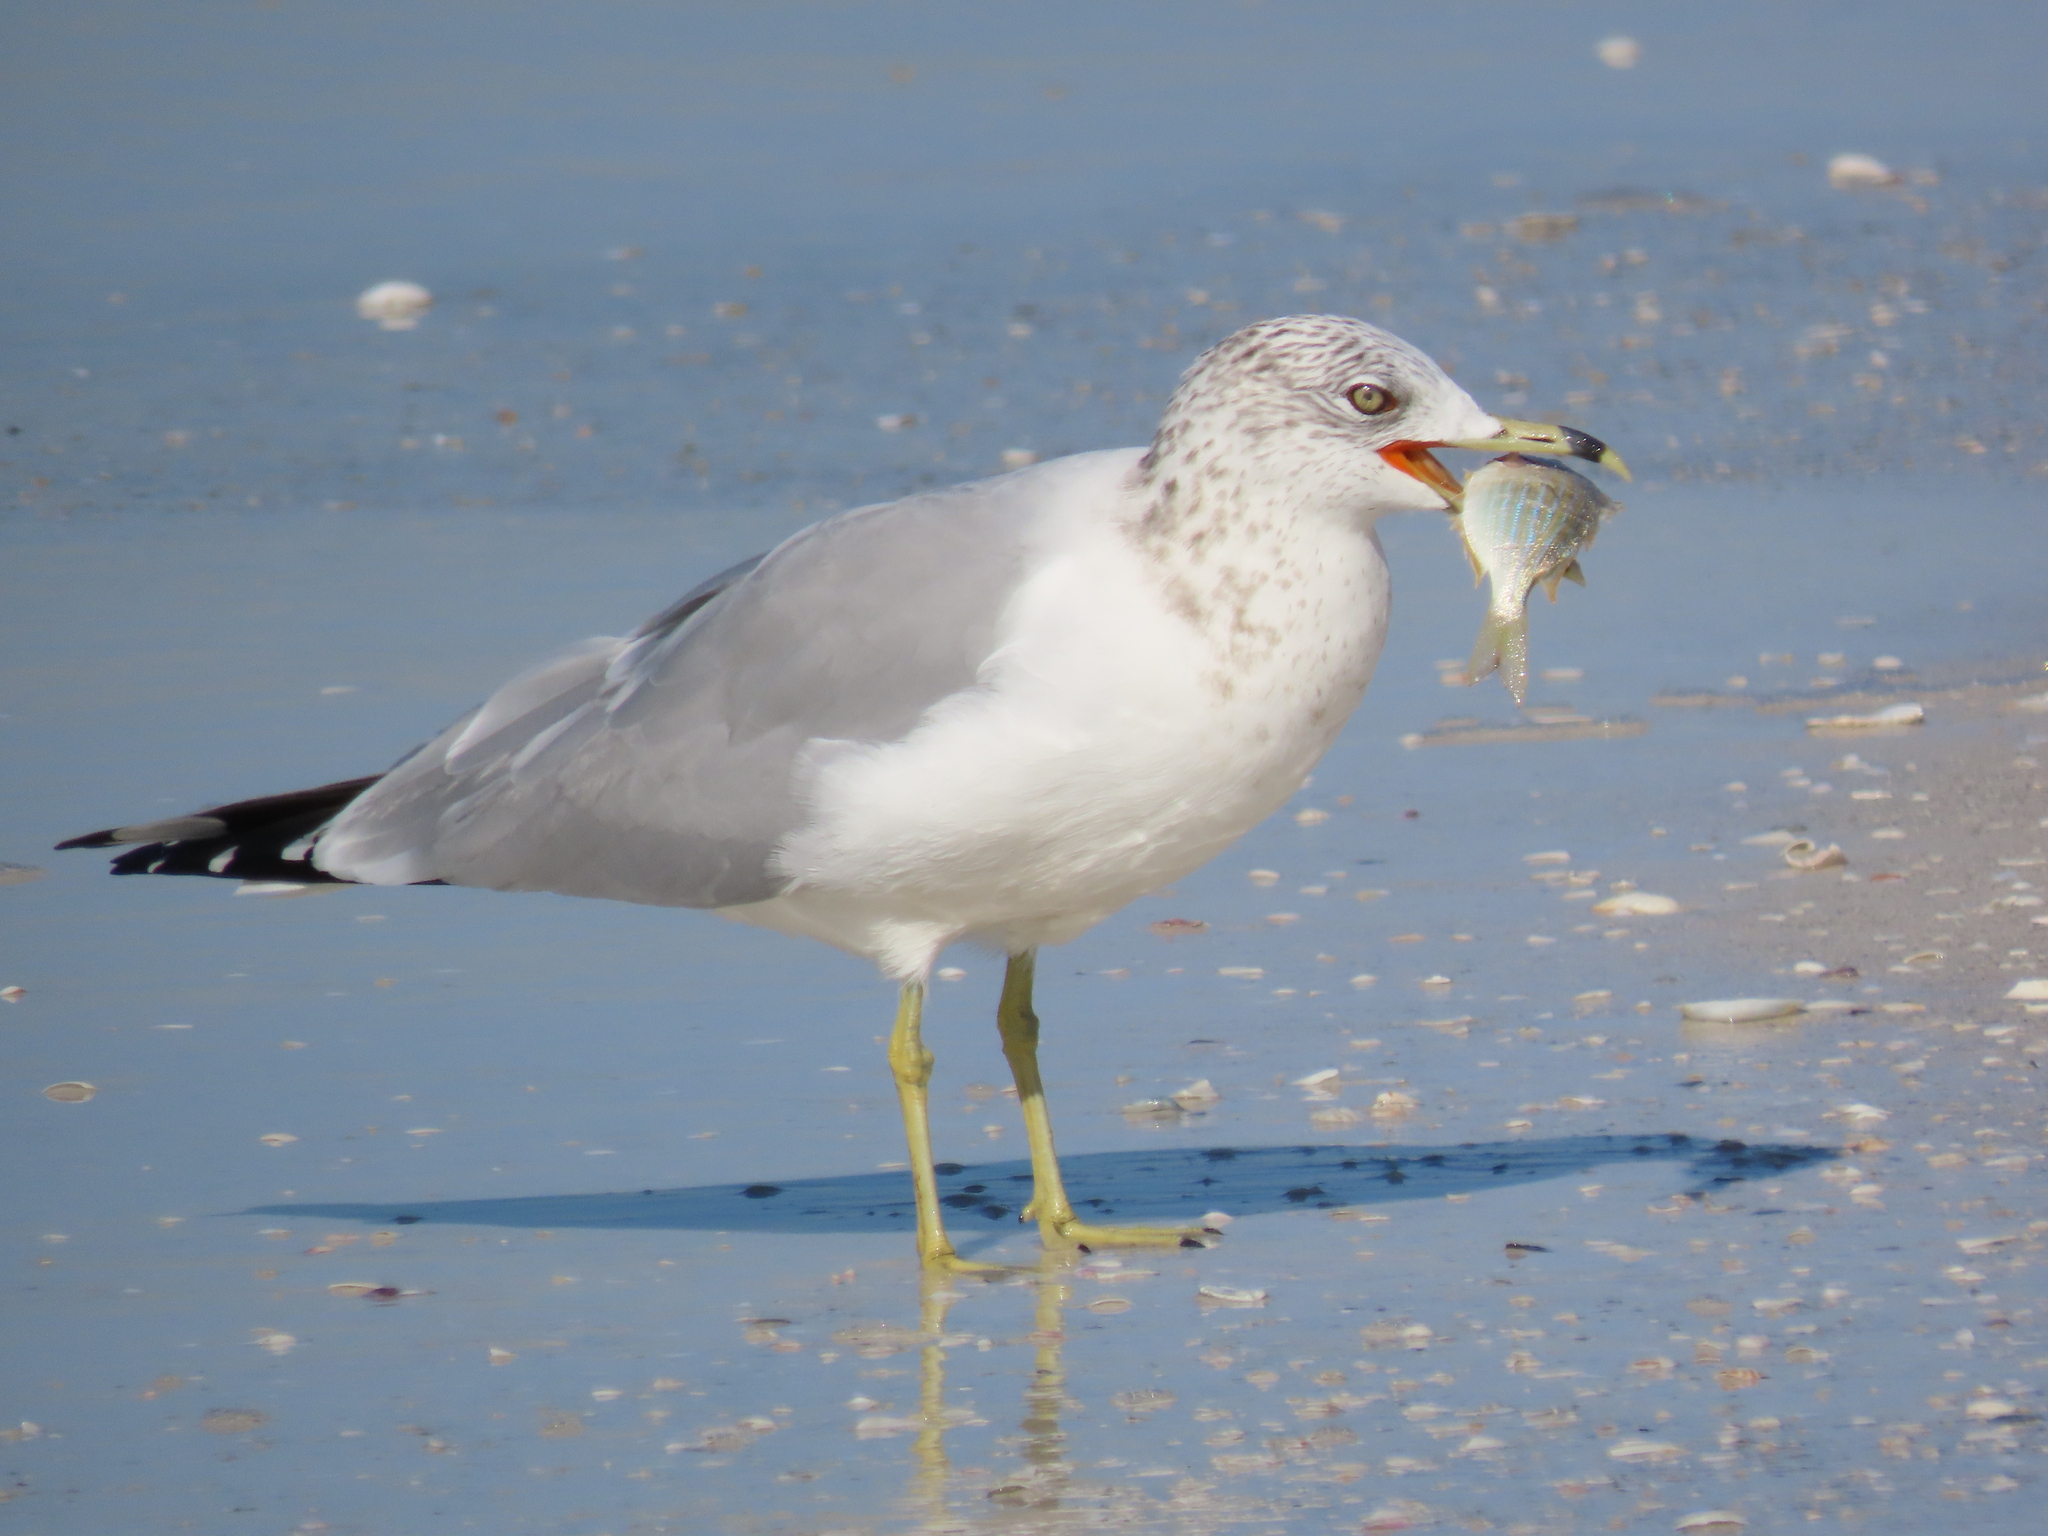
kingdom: Animalia
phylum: Chordata
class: Aves
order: Charadriiformes
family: Laridae
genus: Larus
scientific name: Larus delawarensis
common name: Ring-billed gull
